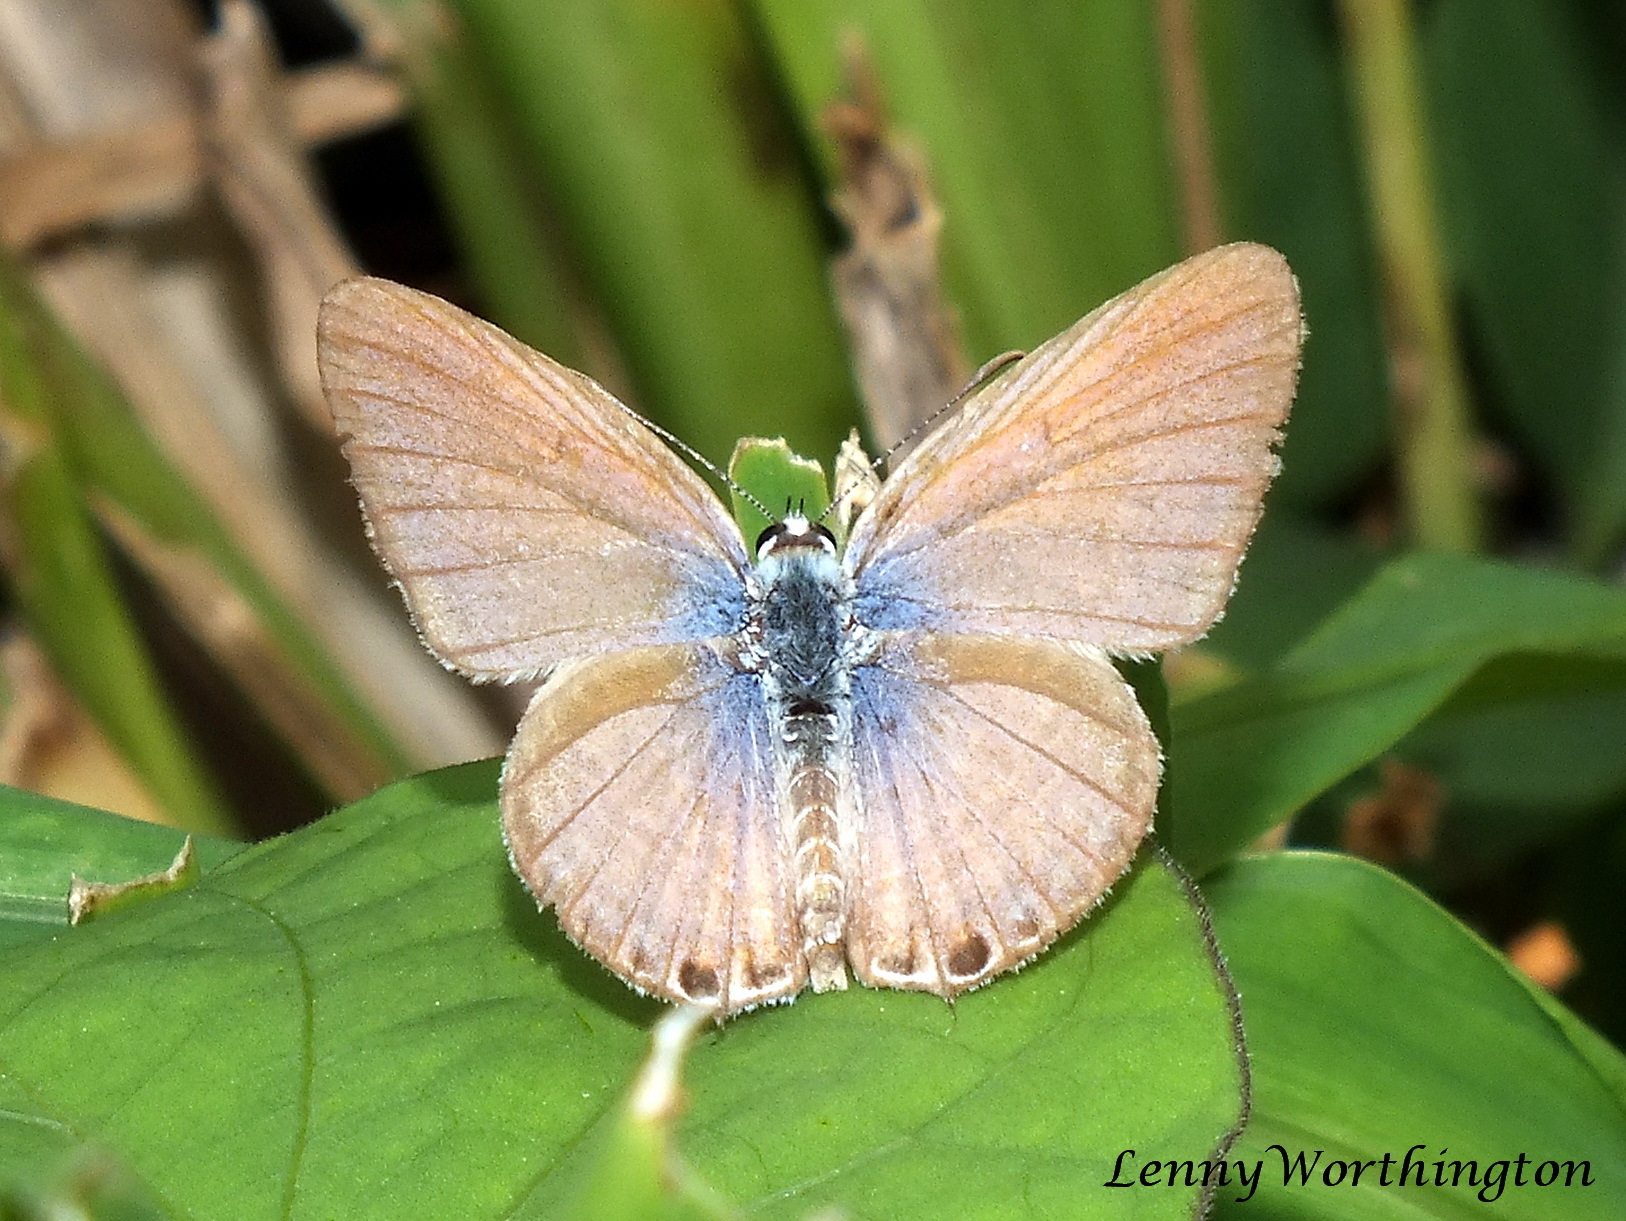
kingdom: Animalia
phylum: Arthropoda
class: Insecta
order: Lepidoptera
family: Lycaenidae
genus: Euchrysops
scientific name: Euchrysops cnejus
